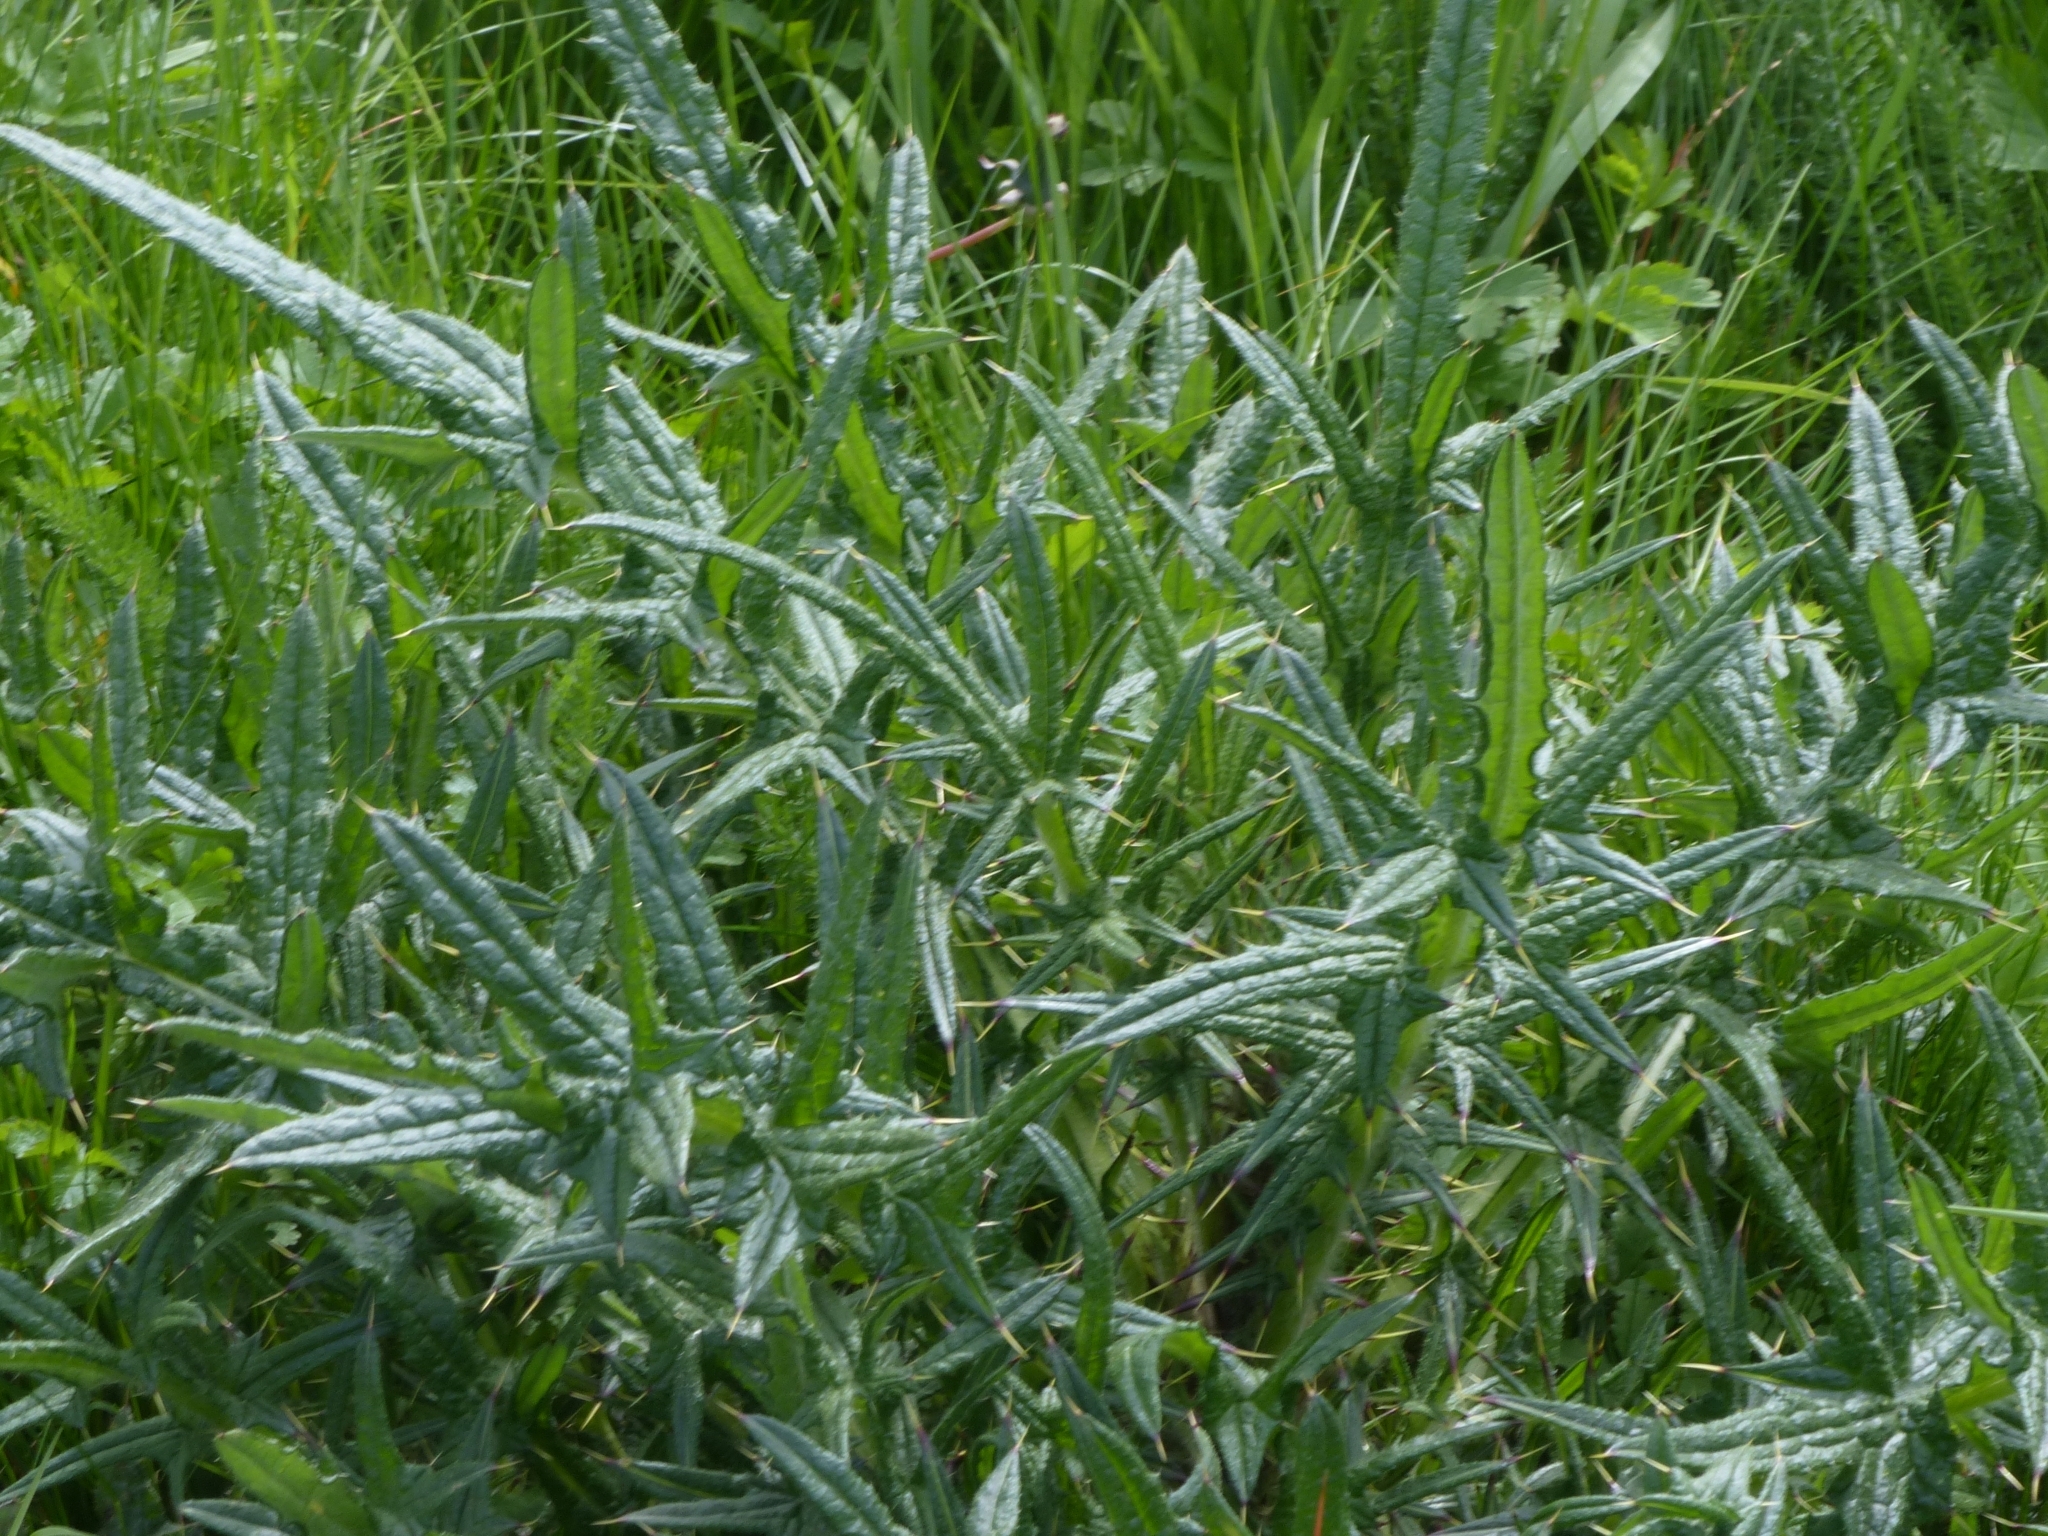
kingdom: Plantae
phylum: Tracheophyta
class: Magnoliopsida
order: Asterales
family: Asteraceae
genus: Cirsium
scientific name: Cirsium vulgare
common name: Bull thistle
